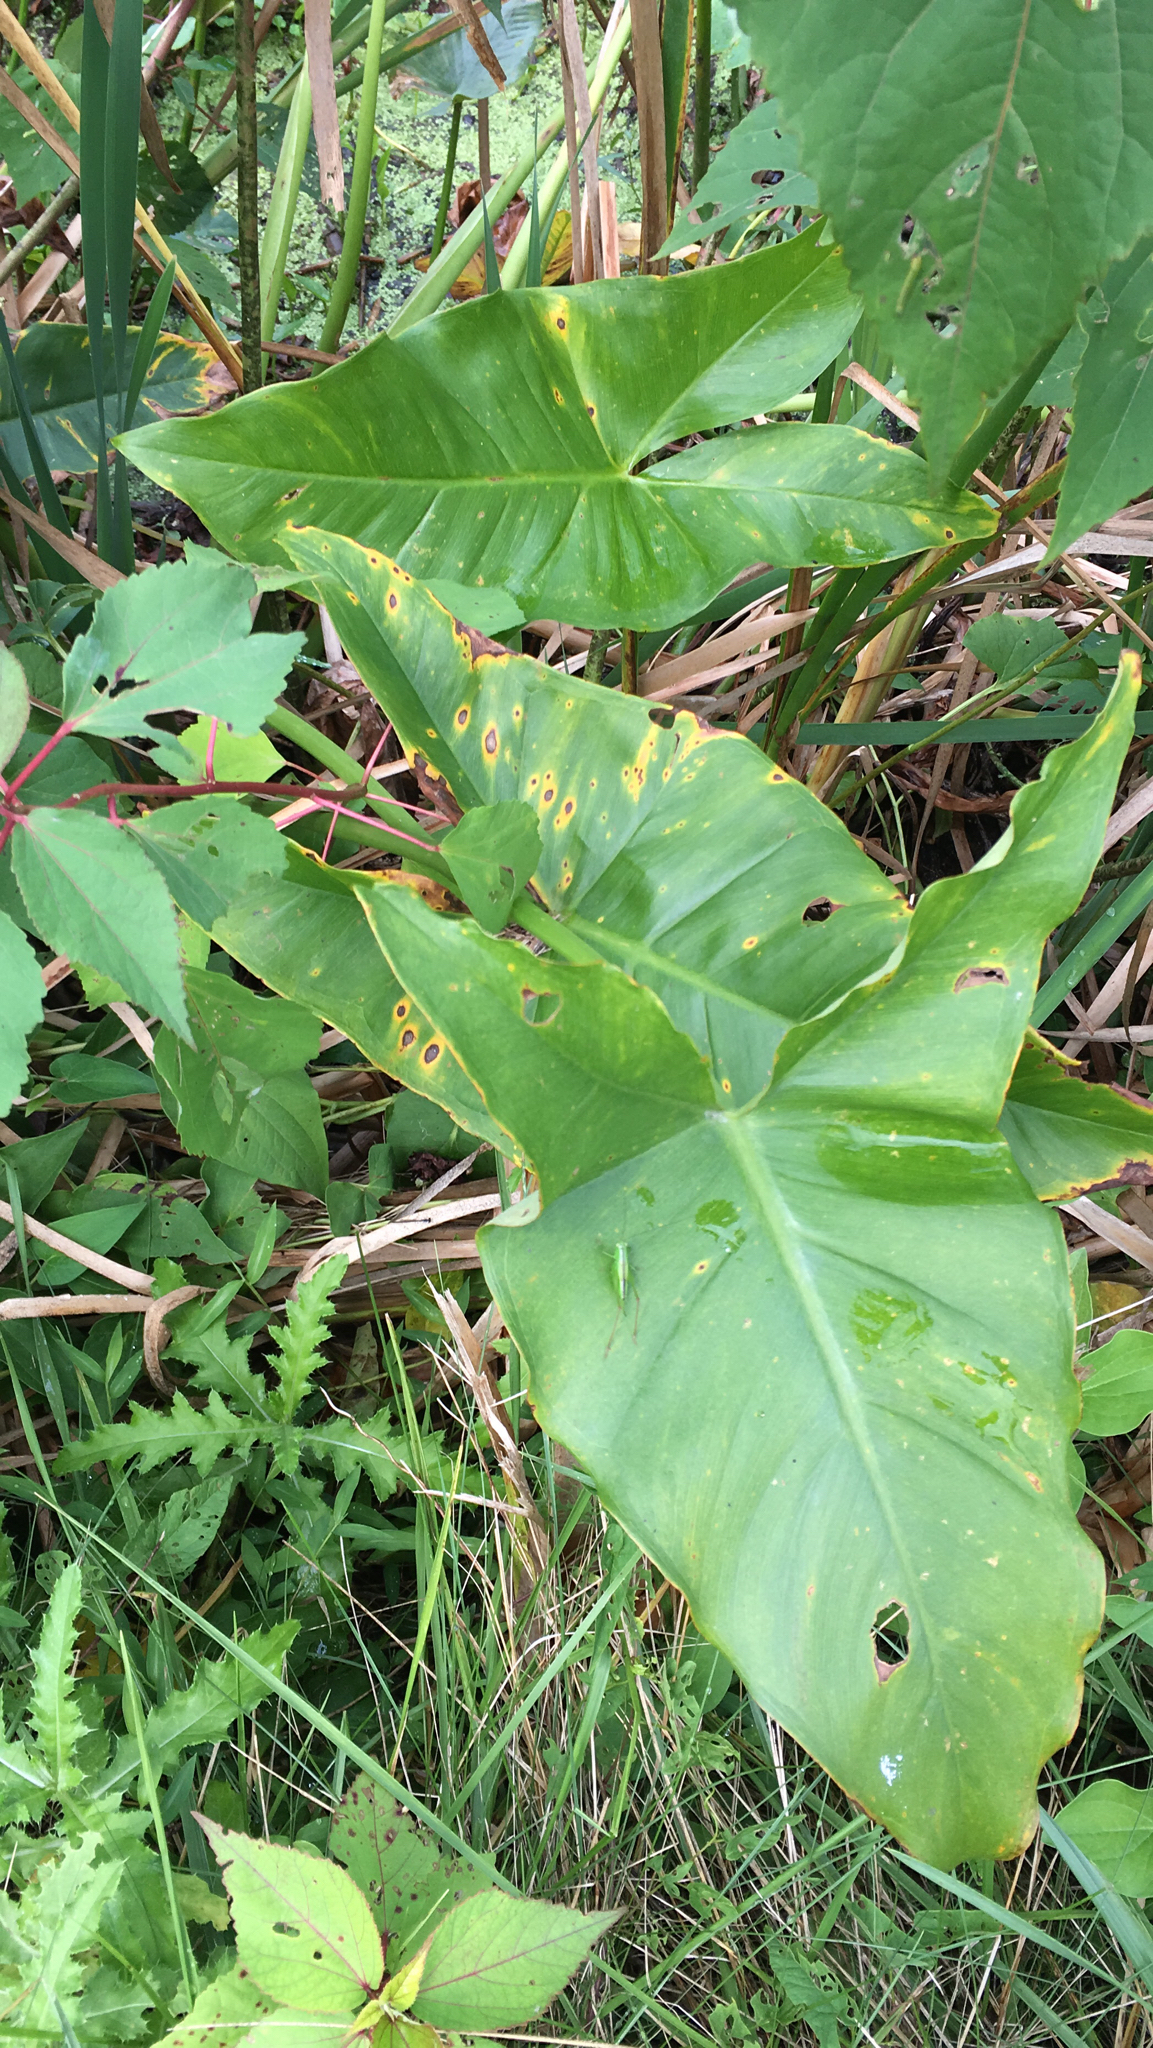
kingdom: Plantae
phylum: Tracheophyta
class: Liliopsida
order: Alismatales
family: Araceae
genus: Peltandra
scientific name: Peltandra virginica
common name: Arrow arum
